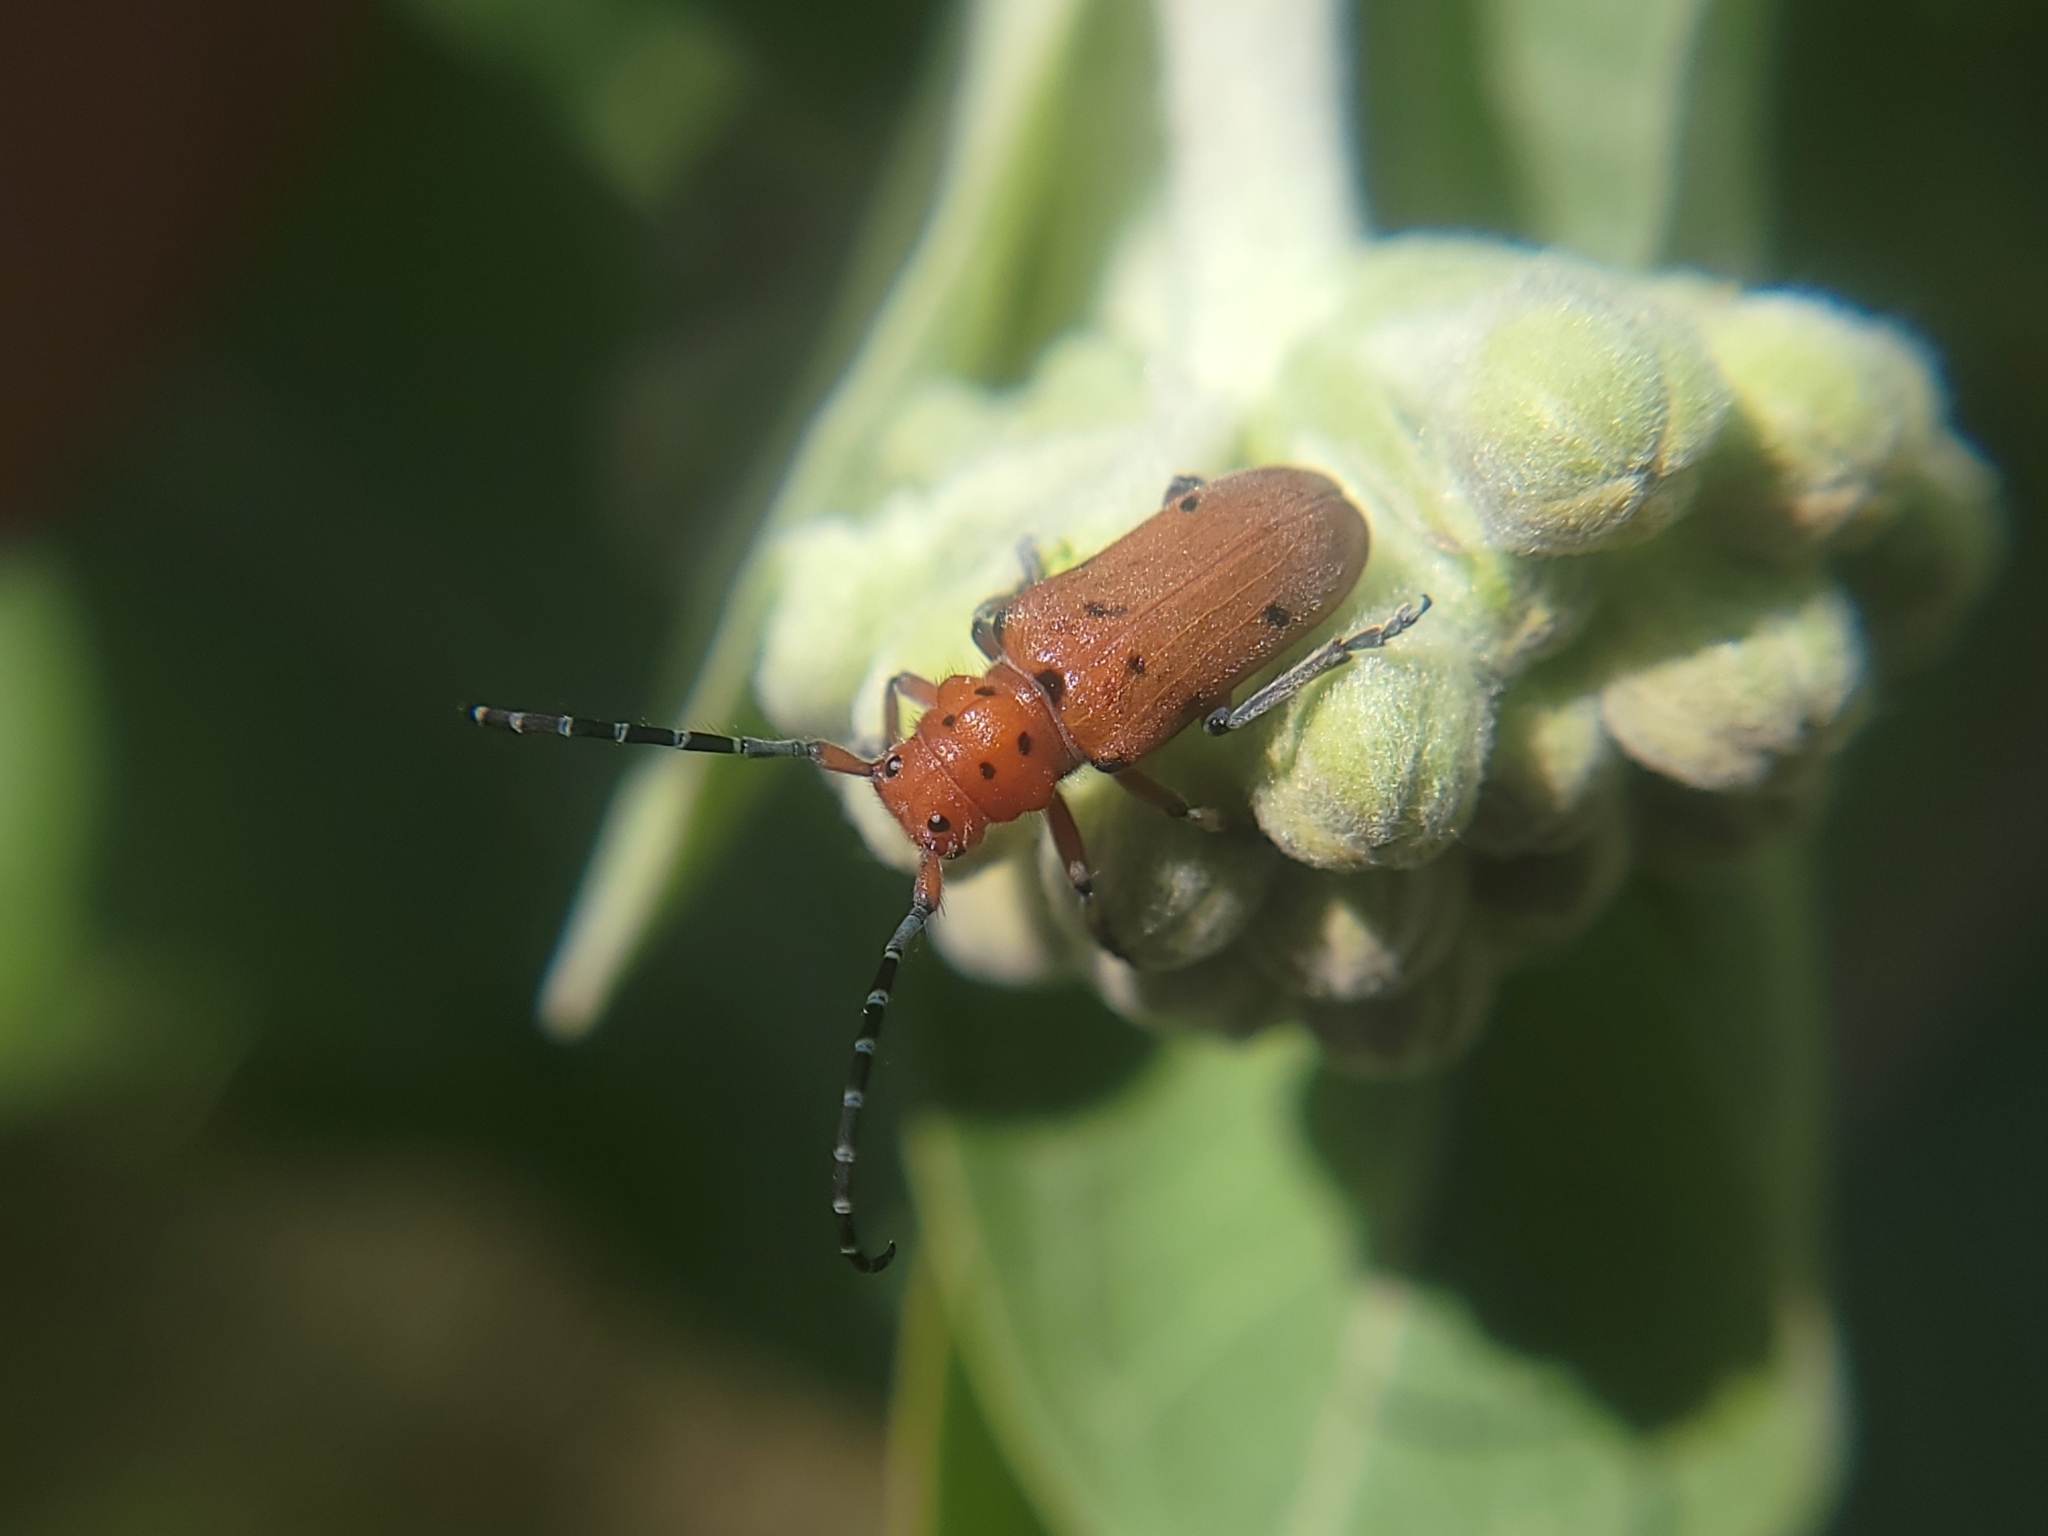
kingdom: Animalia
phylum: Arthropoda
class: Insecta
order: Coleoptera
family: Cerambycidae
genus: Tetraopes
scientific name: Tetraopes femoratus
